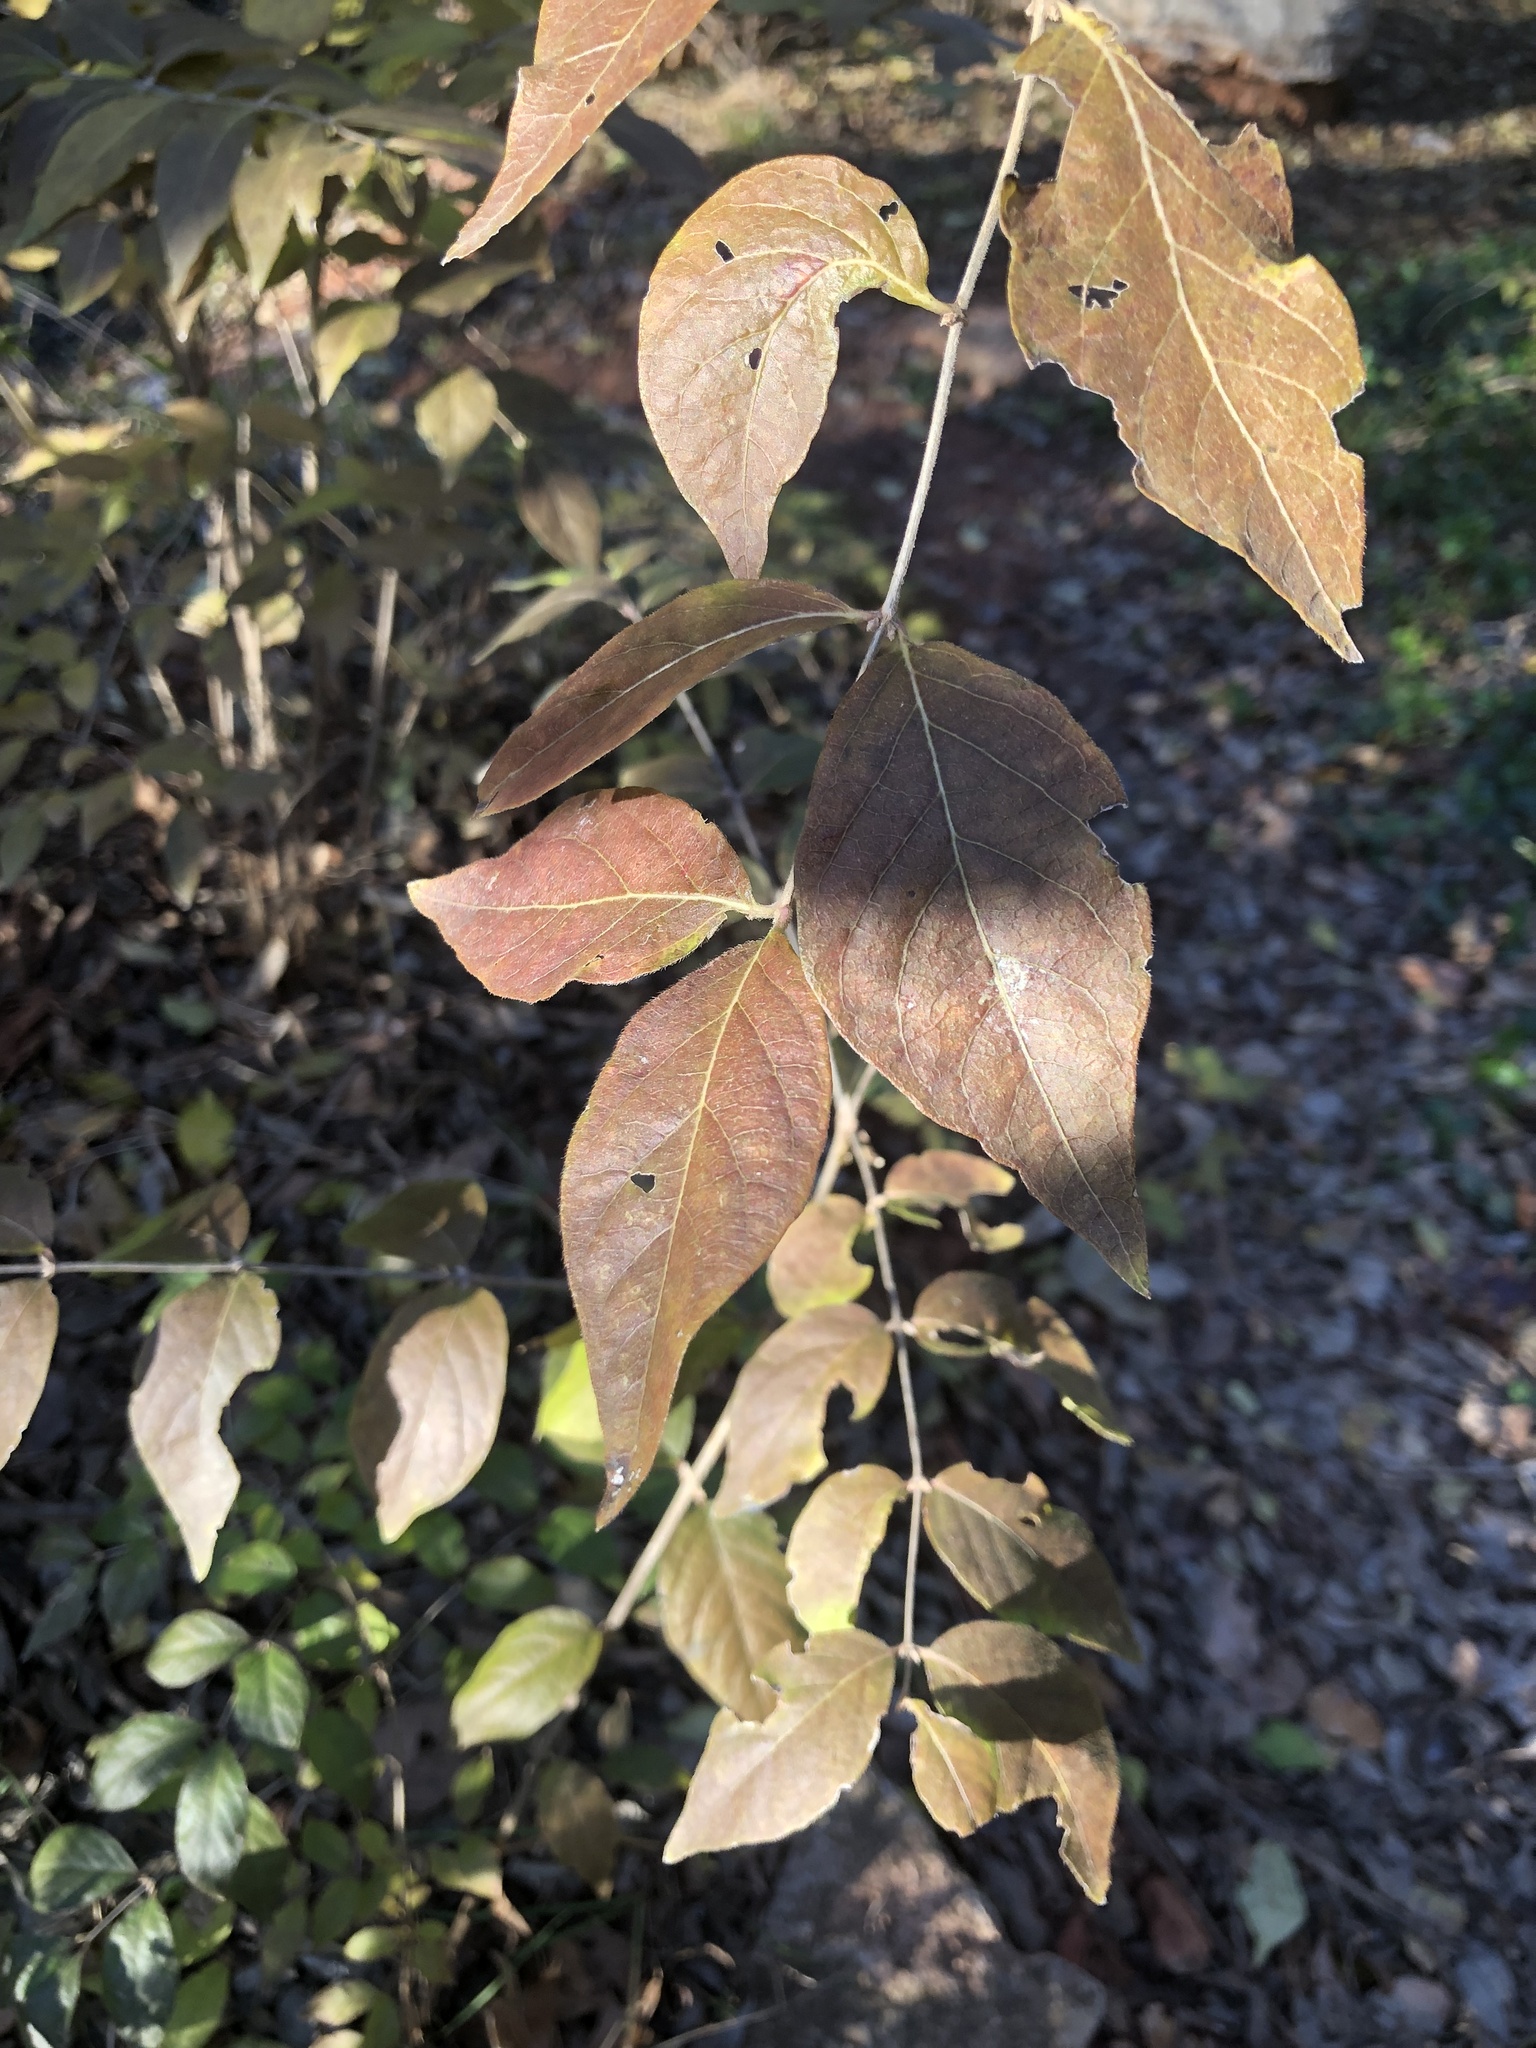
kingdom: Plantae
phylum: Tracheophyta
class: Magnoliopsida
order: Dipsacales
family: Caprifoliaceae
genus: Lonicera
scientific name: Lonicera maackii
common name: Amur honeysuckle
